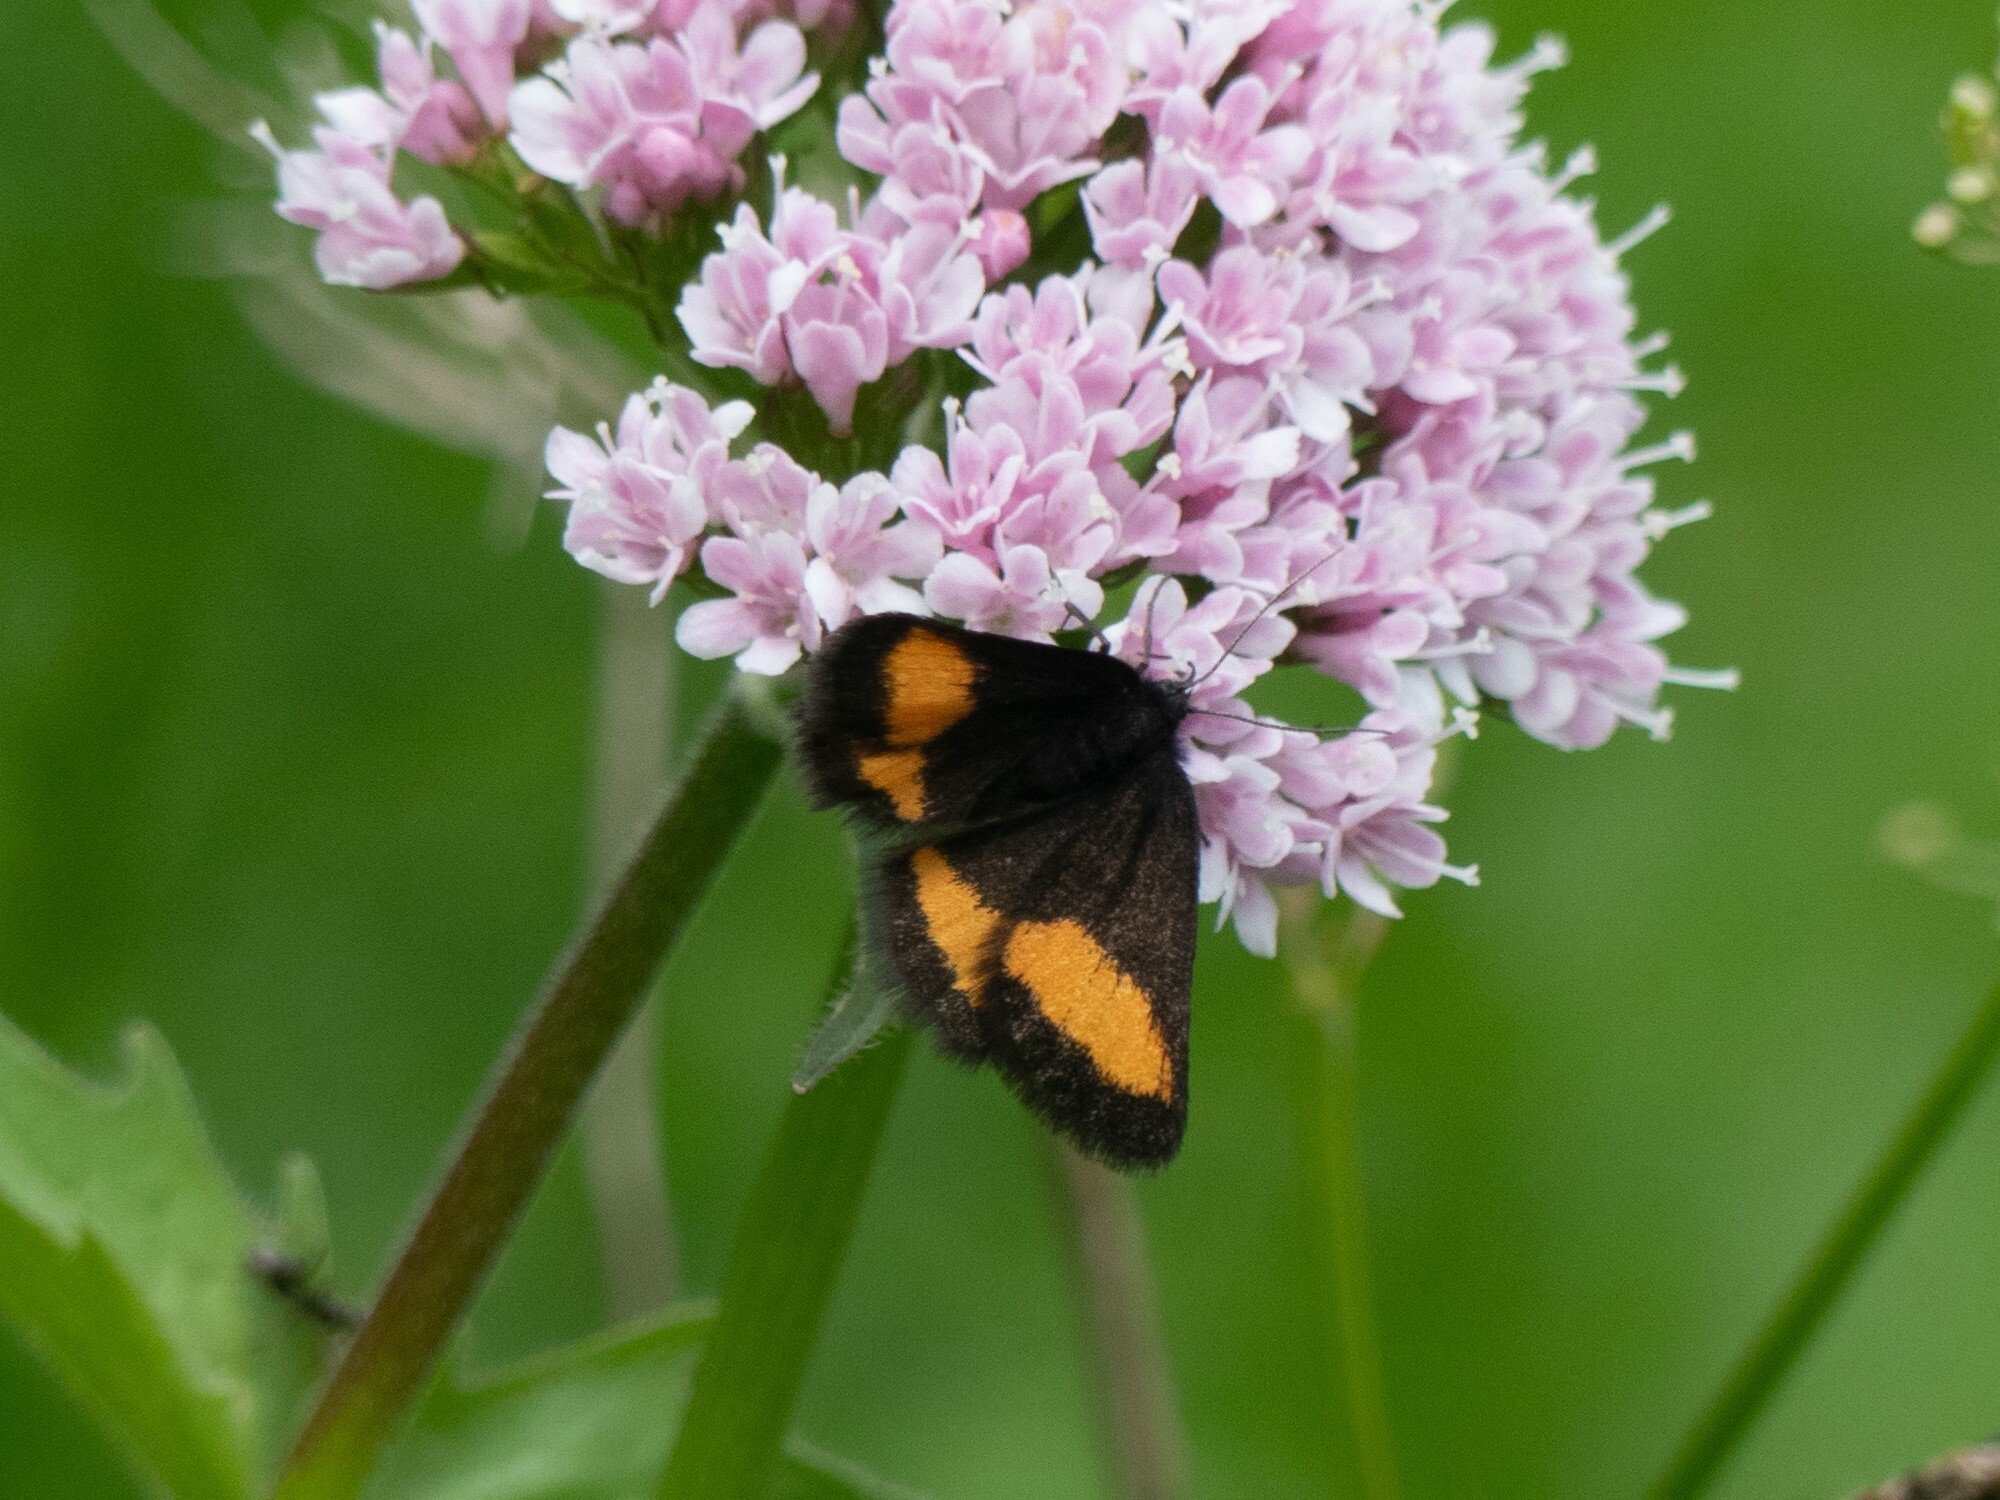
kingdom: Animalia
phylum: Arthropoda
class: Insecta
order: Lepidoptera
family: Geometridae
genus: Psodos
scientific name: Psodos quadrifaria
